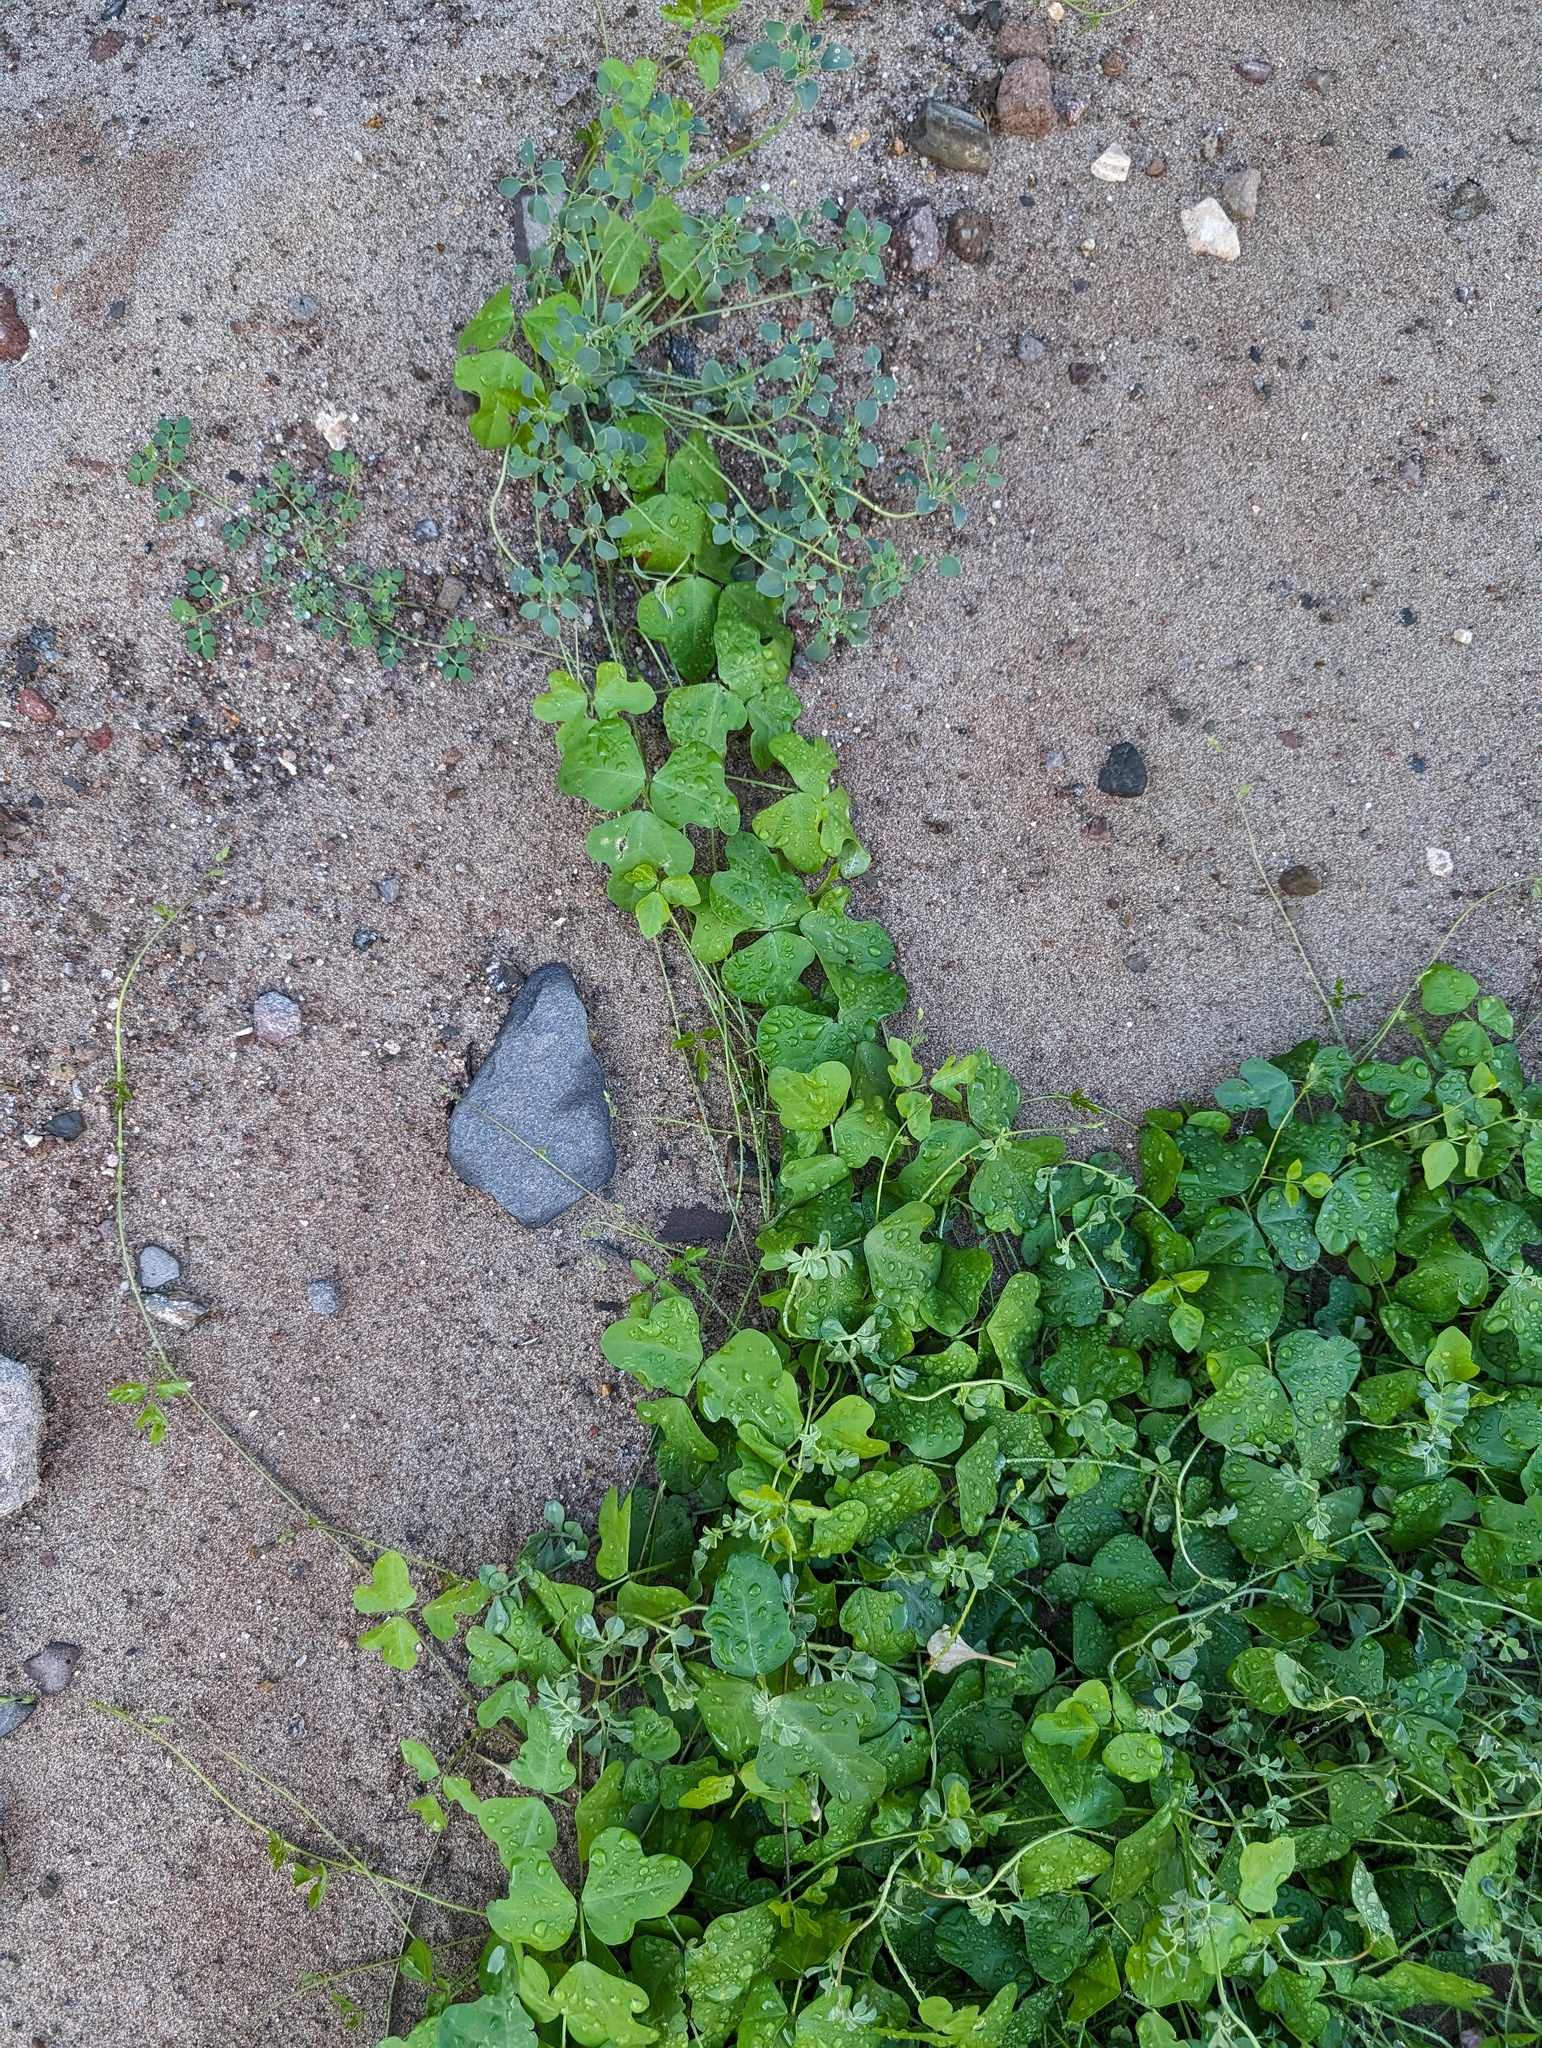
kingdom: Plantae
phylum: Tracheophyta
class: Magnoliopsida
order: Fabales
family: Fabaceae
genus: Phaseolus
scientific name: Phaseolus filiformis
